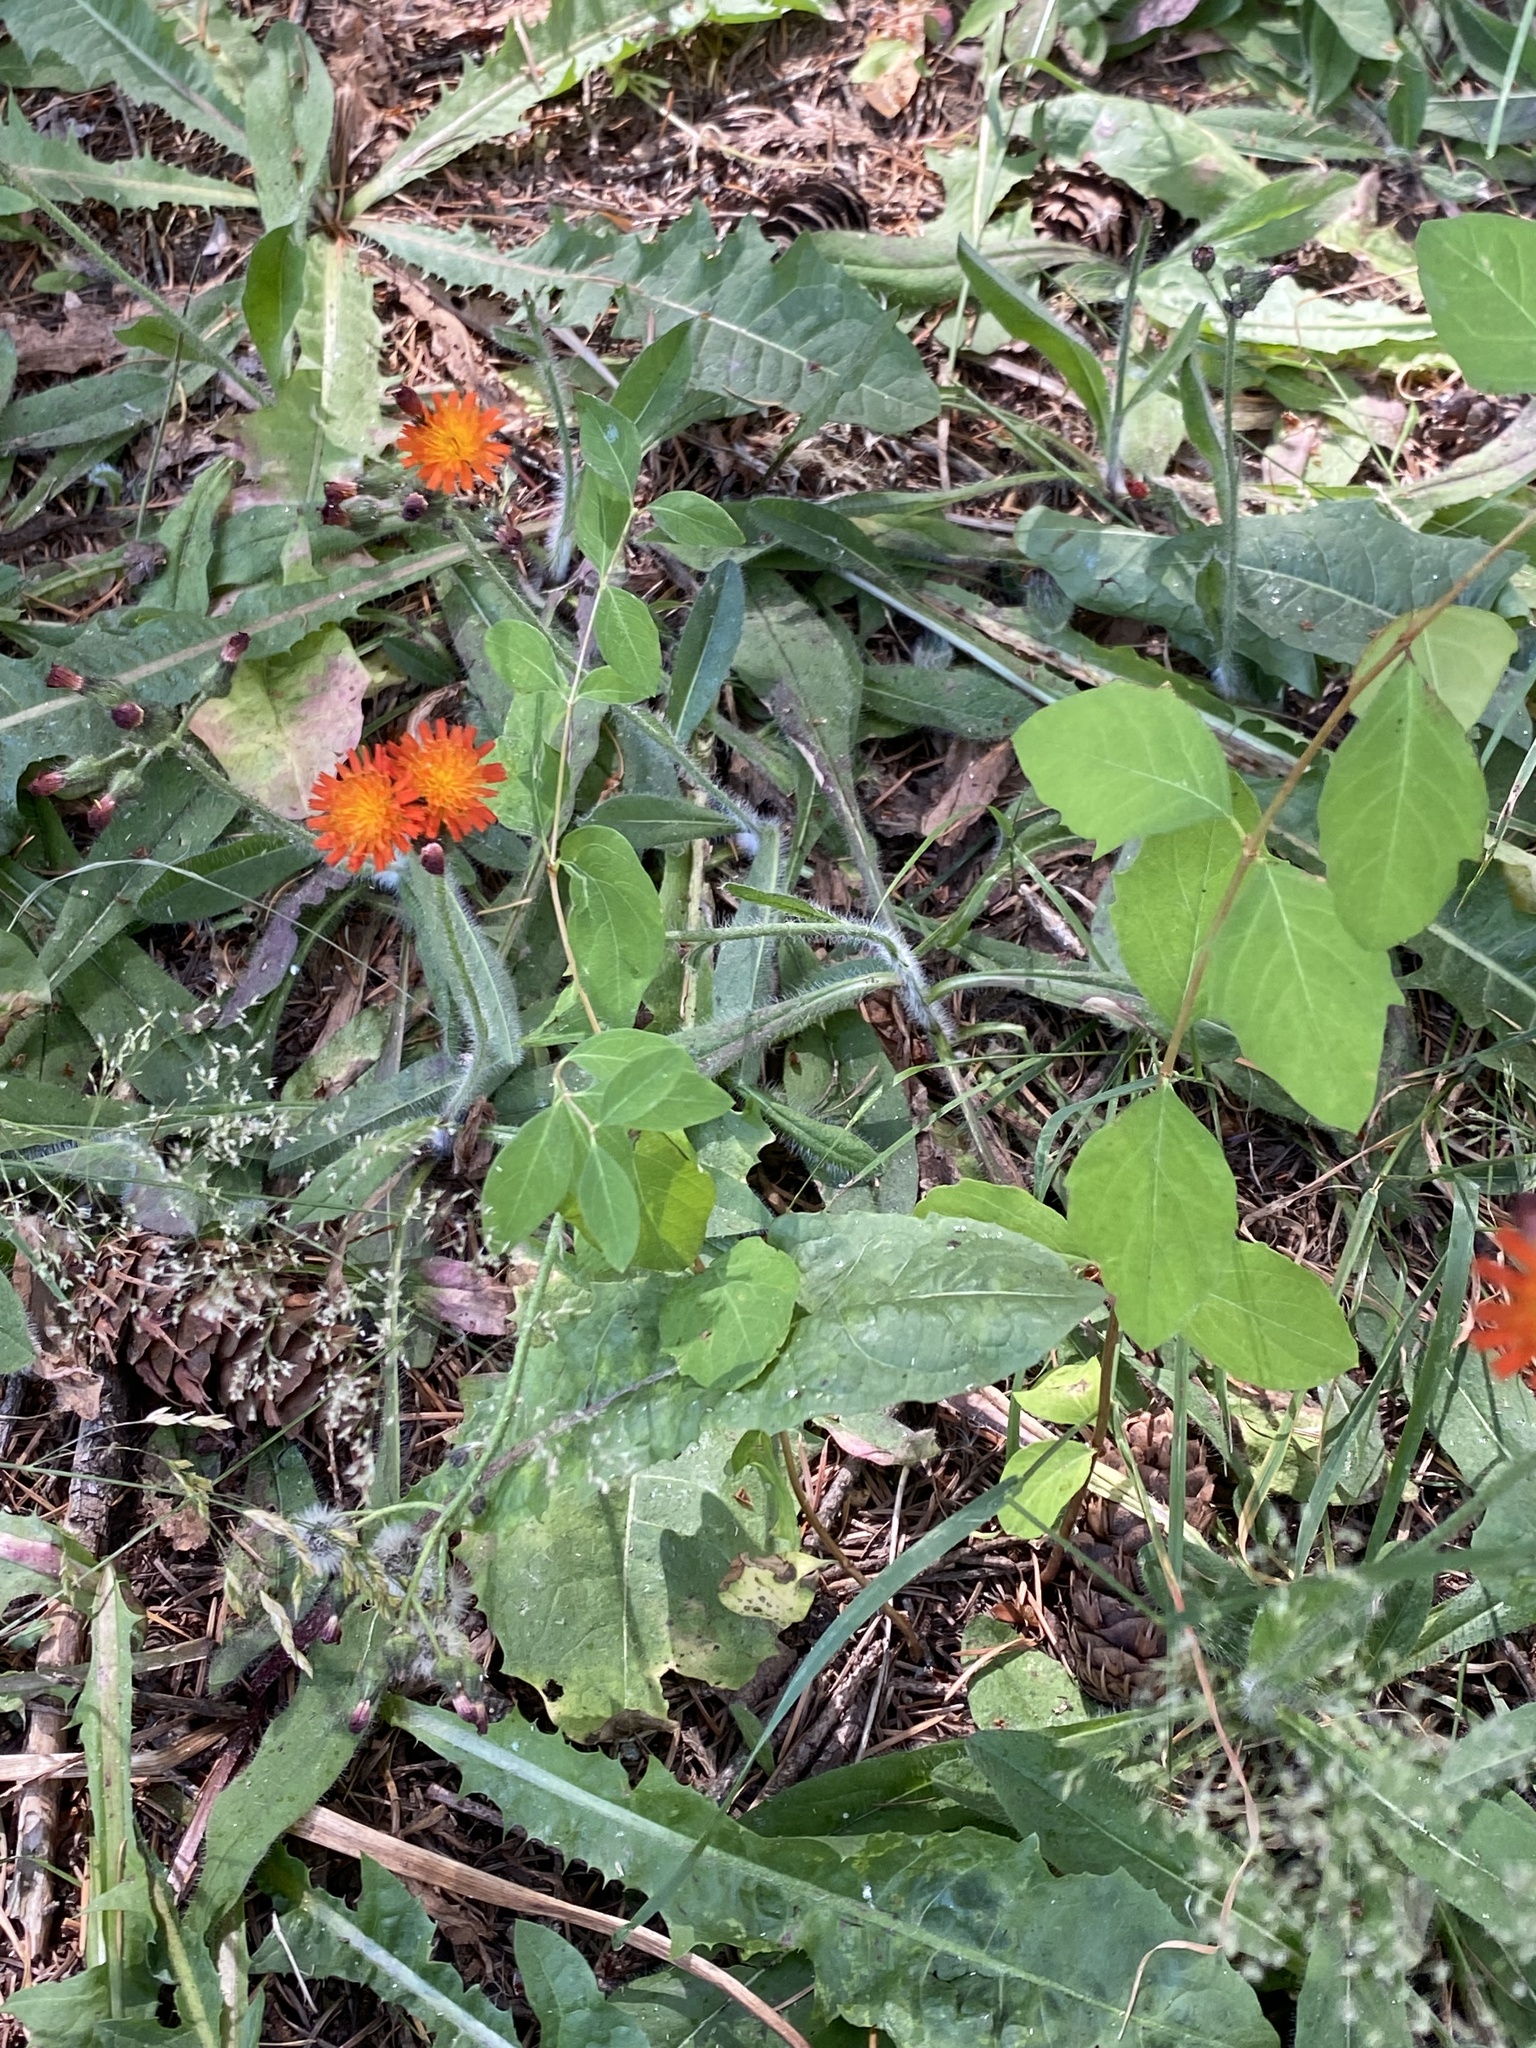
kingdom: Plantae
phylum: Tracheophyta
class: Magnoliopsida
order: Asterales
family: Asteraceae
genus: Pilosella
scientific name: Pilosella aurantiaca
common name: Fox-and-cubs
